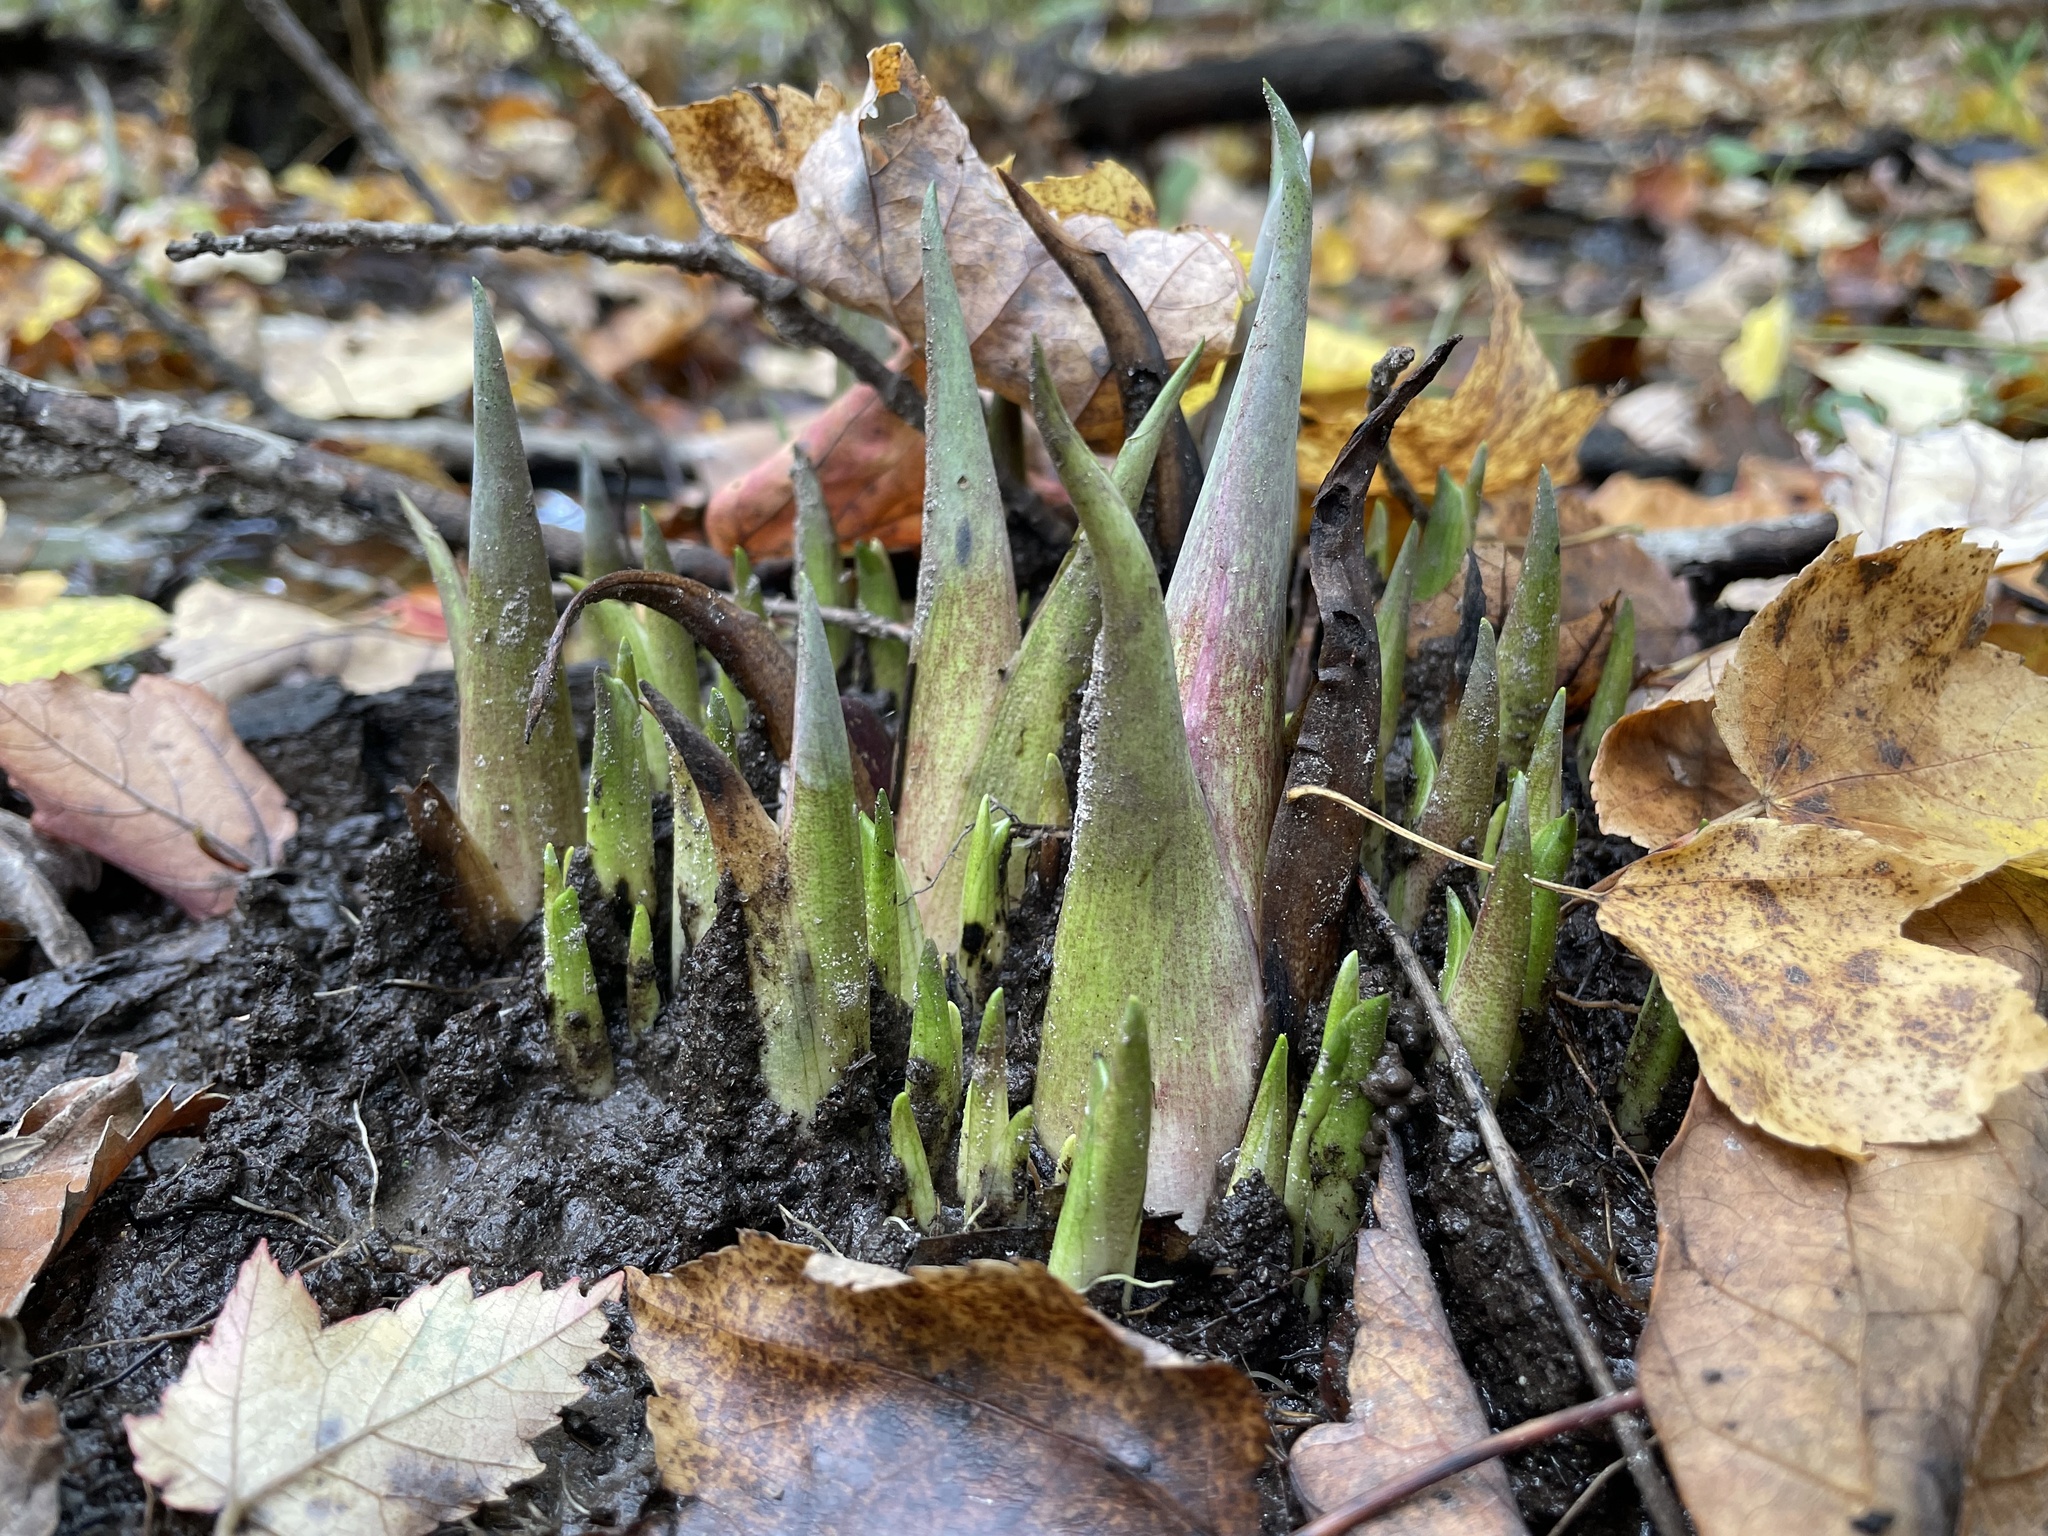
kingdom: Plantae
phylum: Tracheophyta
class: Liliopsida
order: Alismatales
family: Araceae
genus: Symplocarpus
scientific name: Symplocarpus foetidus
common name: Eastern skunk cabbage
